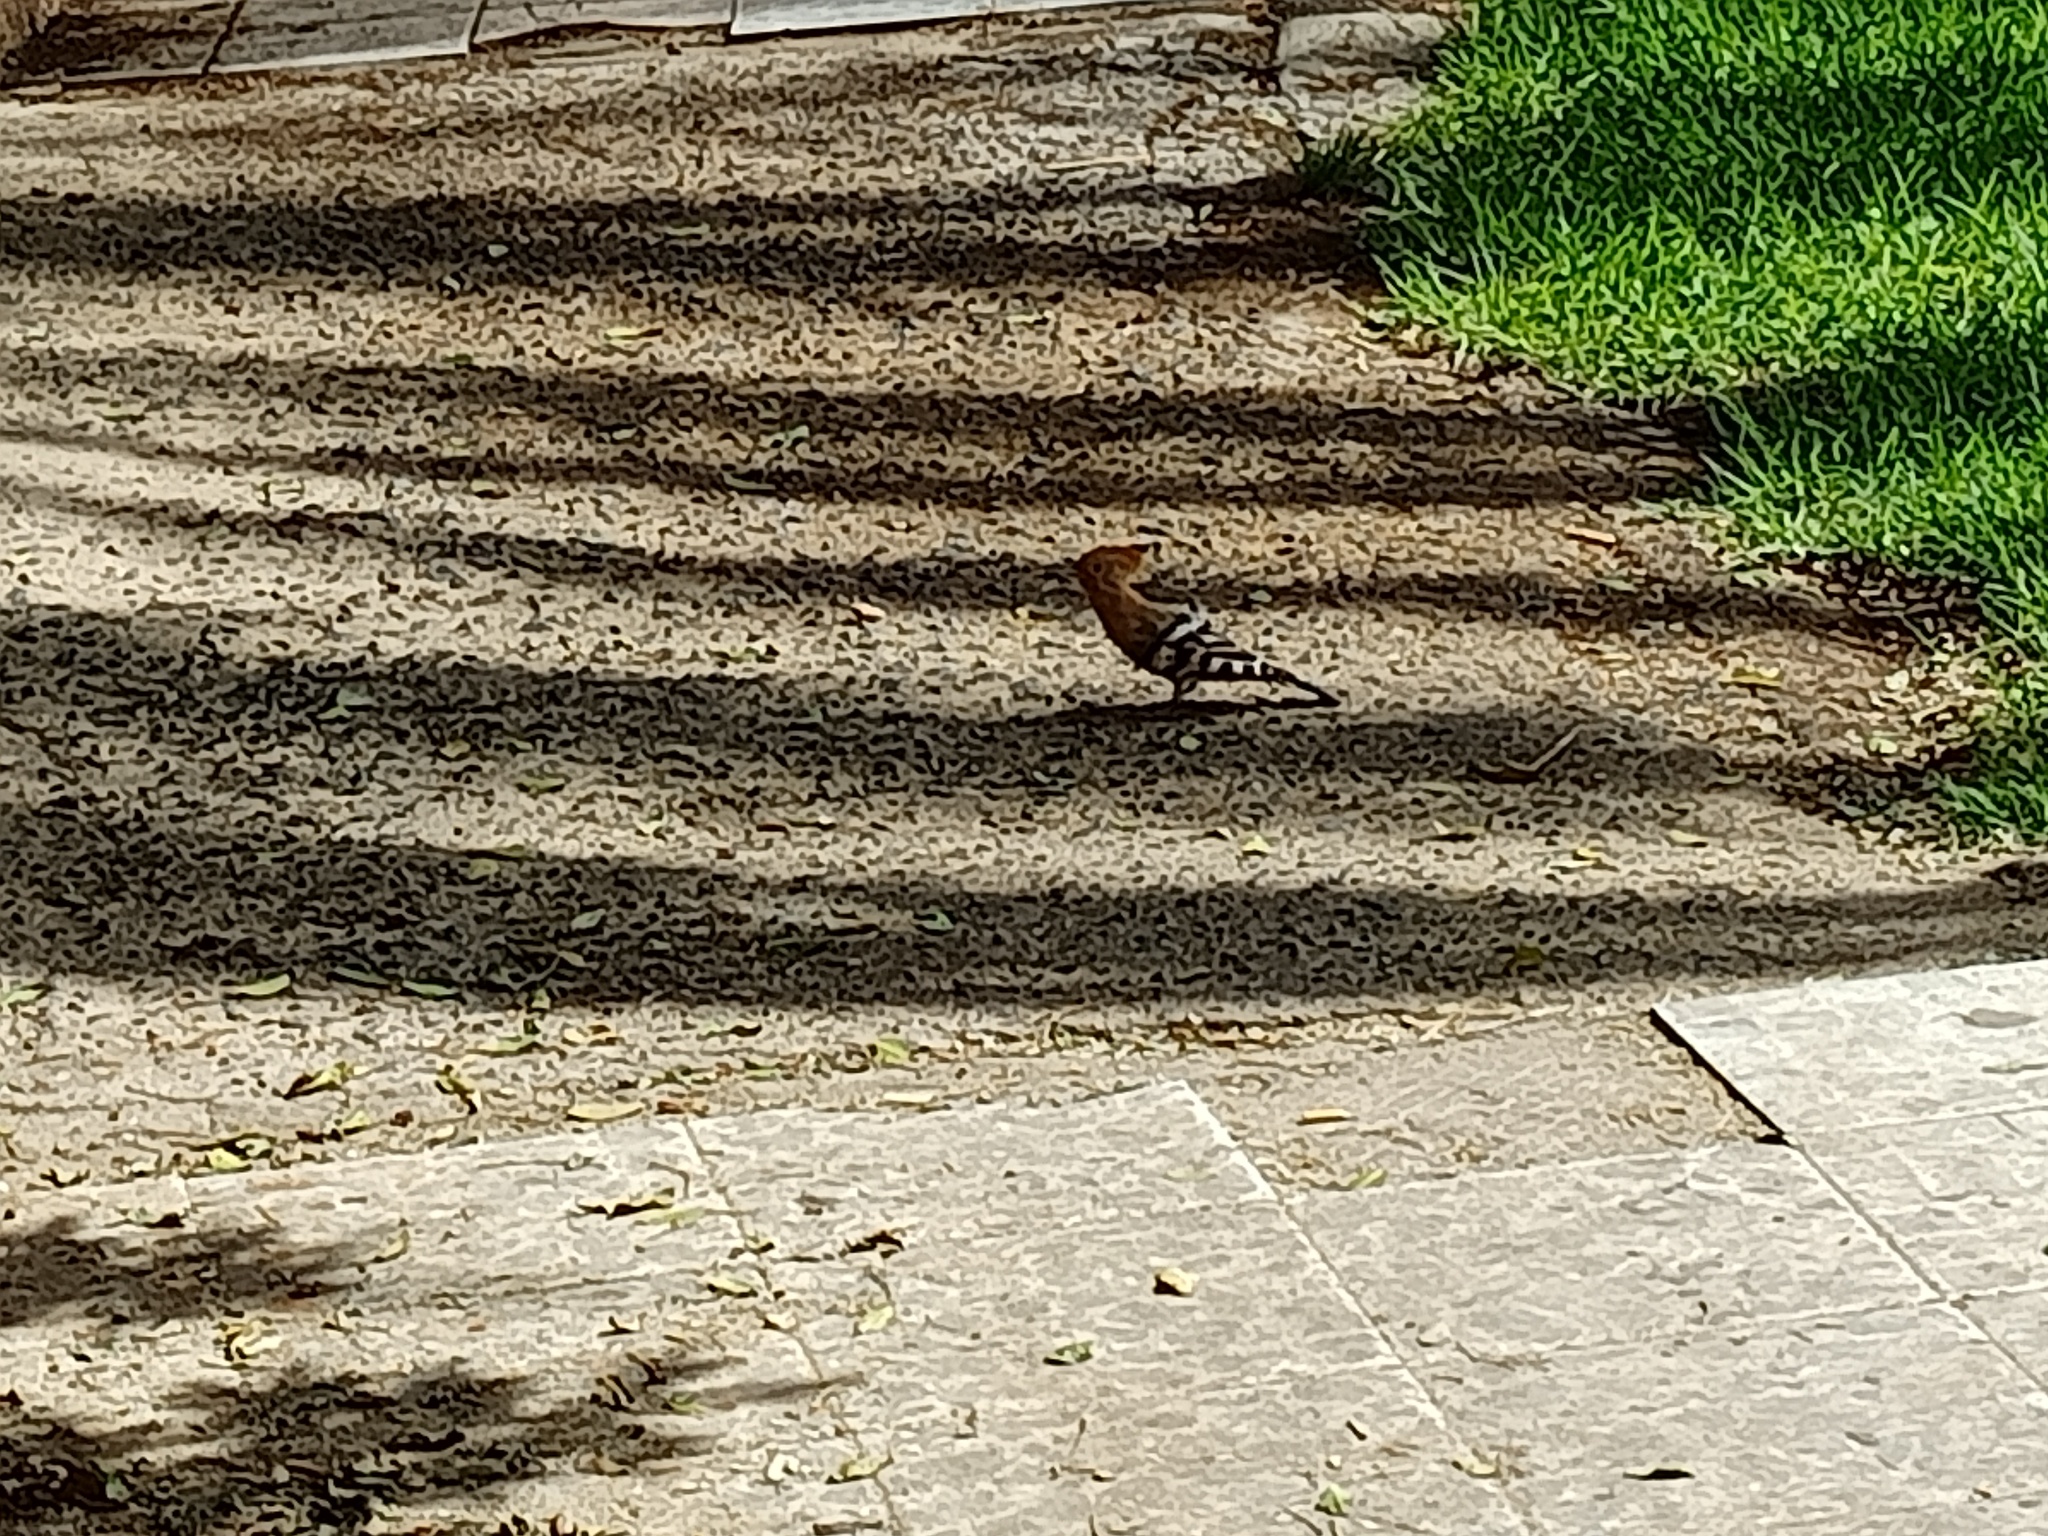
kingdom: Animalia
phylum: Chordata
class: Aves
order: Bucerotiformes
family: Upupidae
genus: Upupa
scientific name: Upupa epops
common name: Eurasian hoopoe
